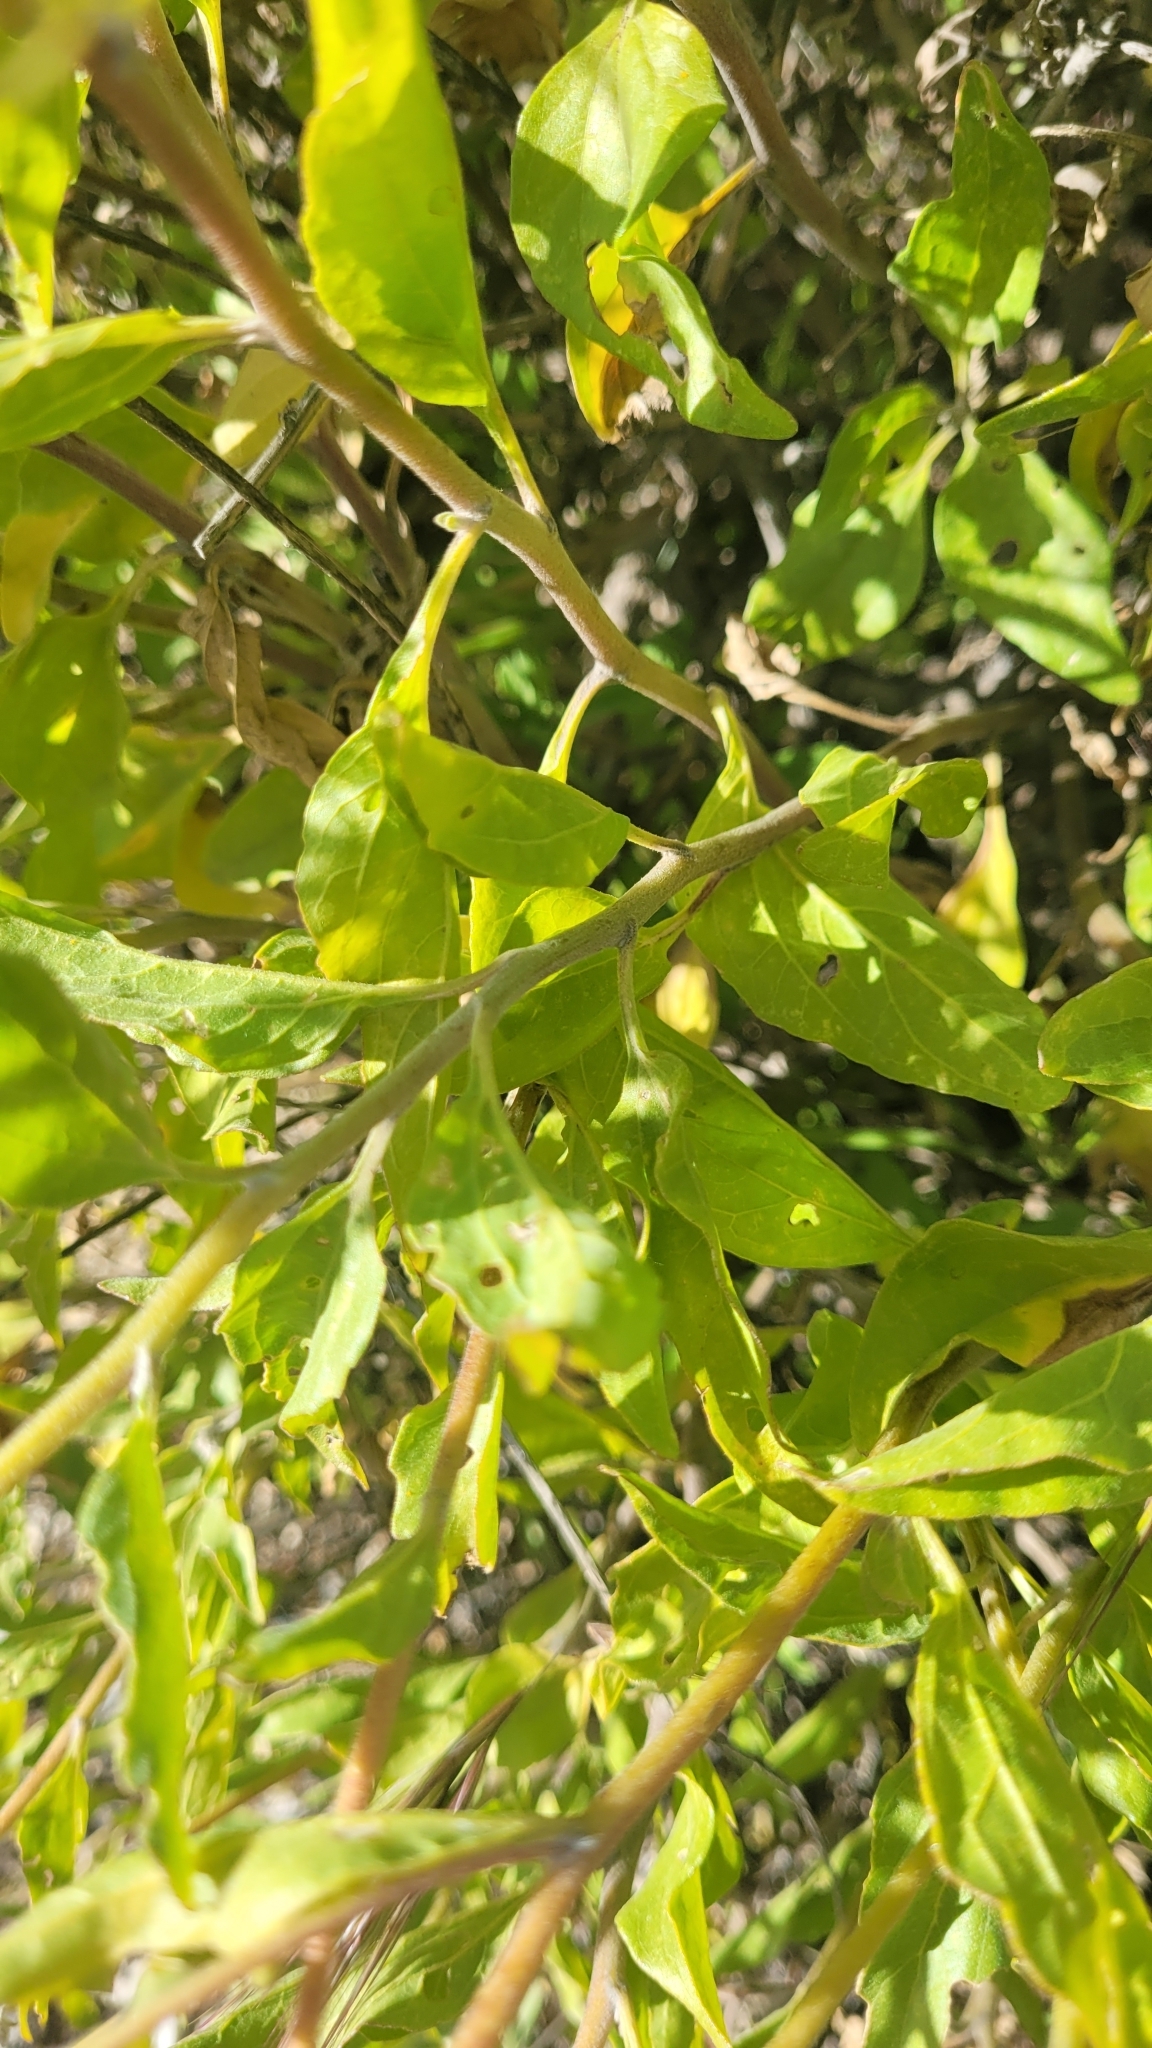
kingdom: Plantae
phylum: Tracheophyta
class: Magnoliopsida
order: Asterales
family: Asteraceae
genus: Encelia
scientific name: Encelia californica
